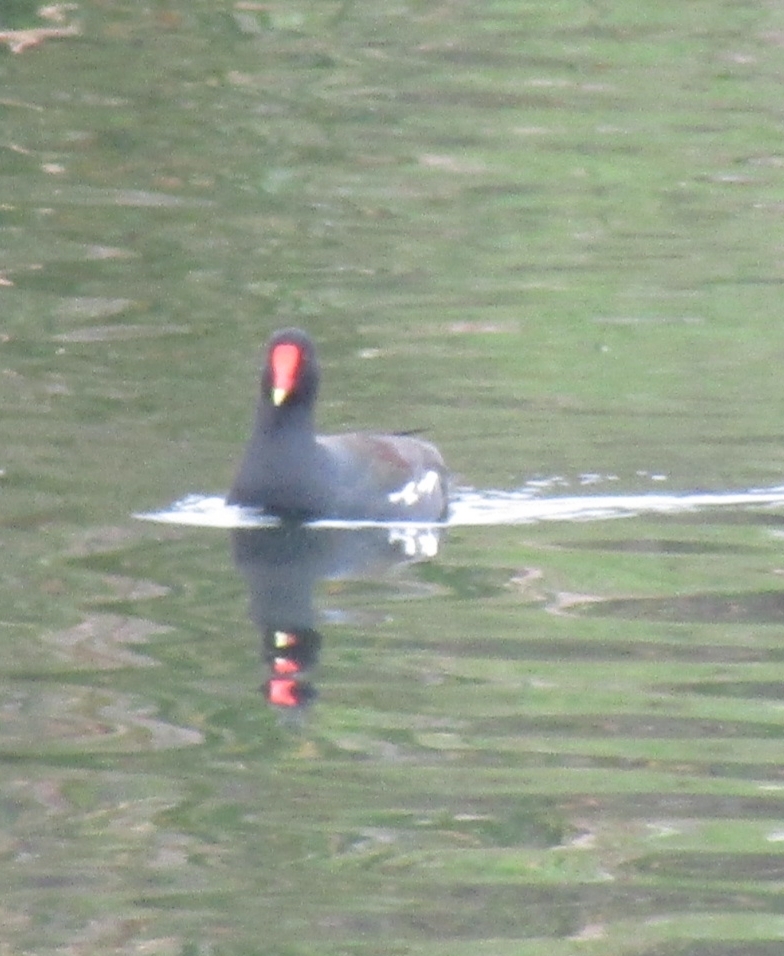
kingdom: Animalia
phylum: Chordata
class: Aves
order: Gruiformes
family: Rallidae
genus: Gallinula
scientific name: Gallinula chloropus
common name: Common moorhen
